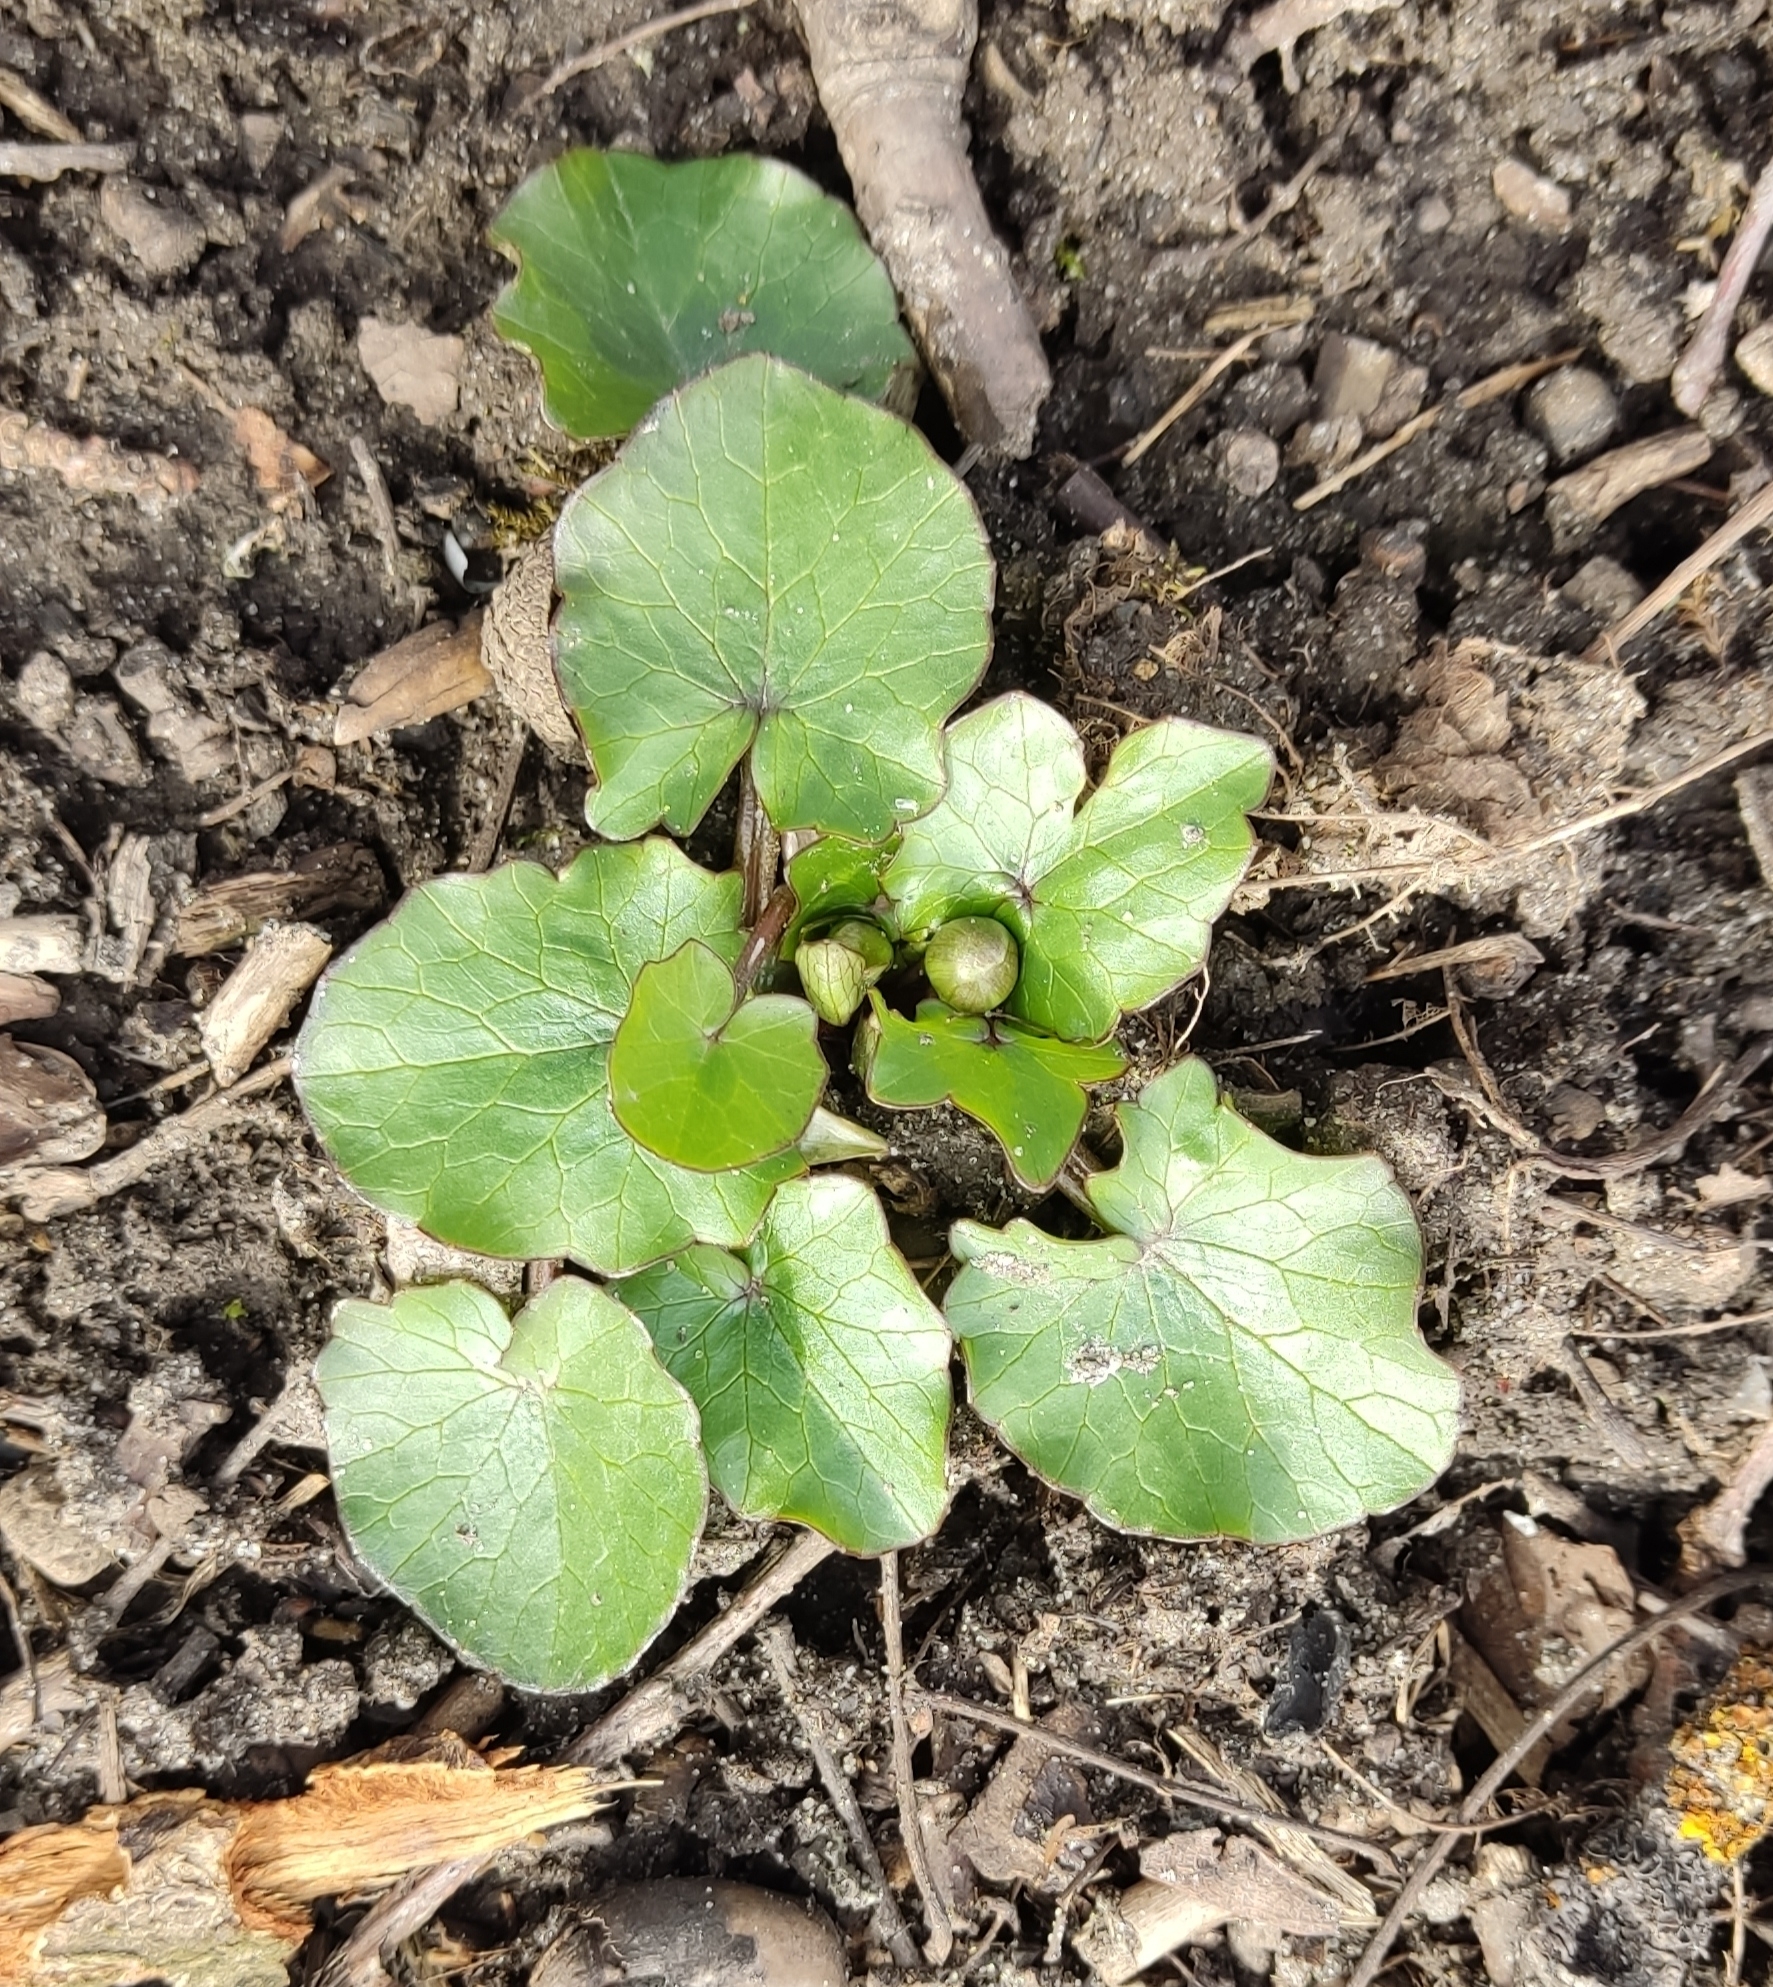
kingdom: Plantae
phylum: Tracheophyta
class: Magnoliopsida
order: Ranunculales
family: Ranunculaceae
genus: Ficaria
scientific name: Ficaria verna
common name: Lesser celandine
